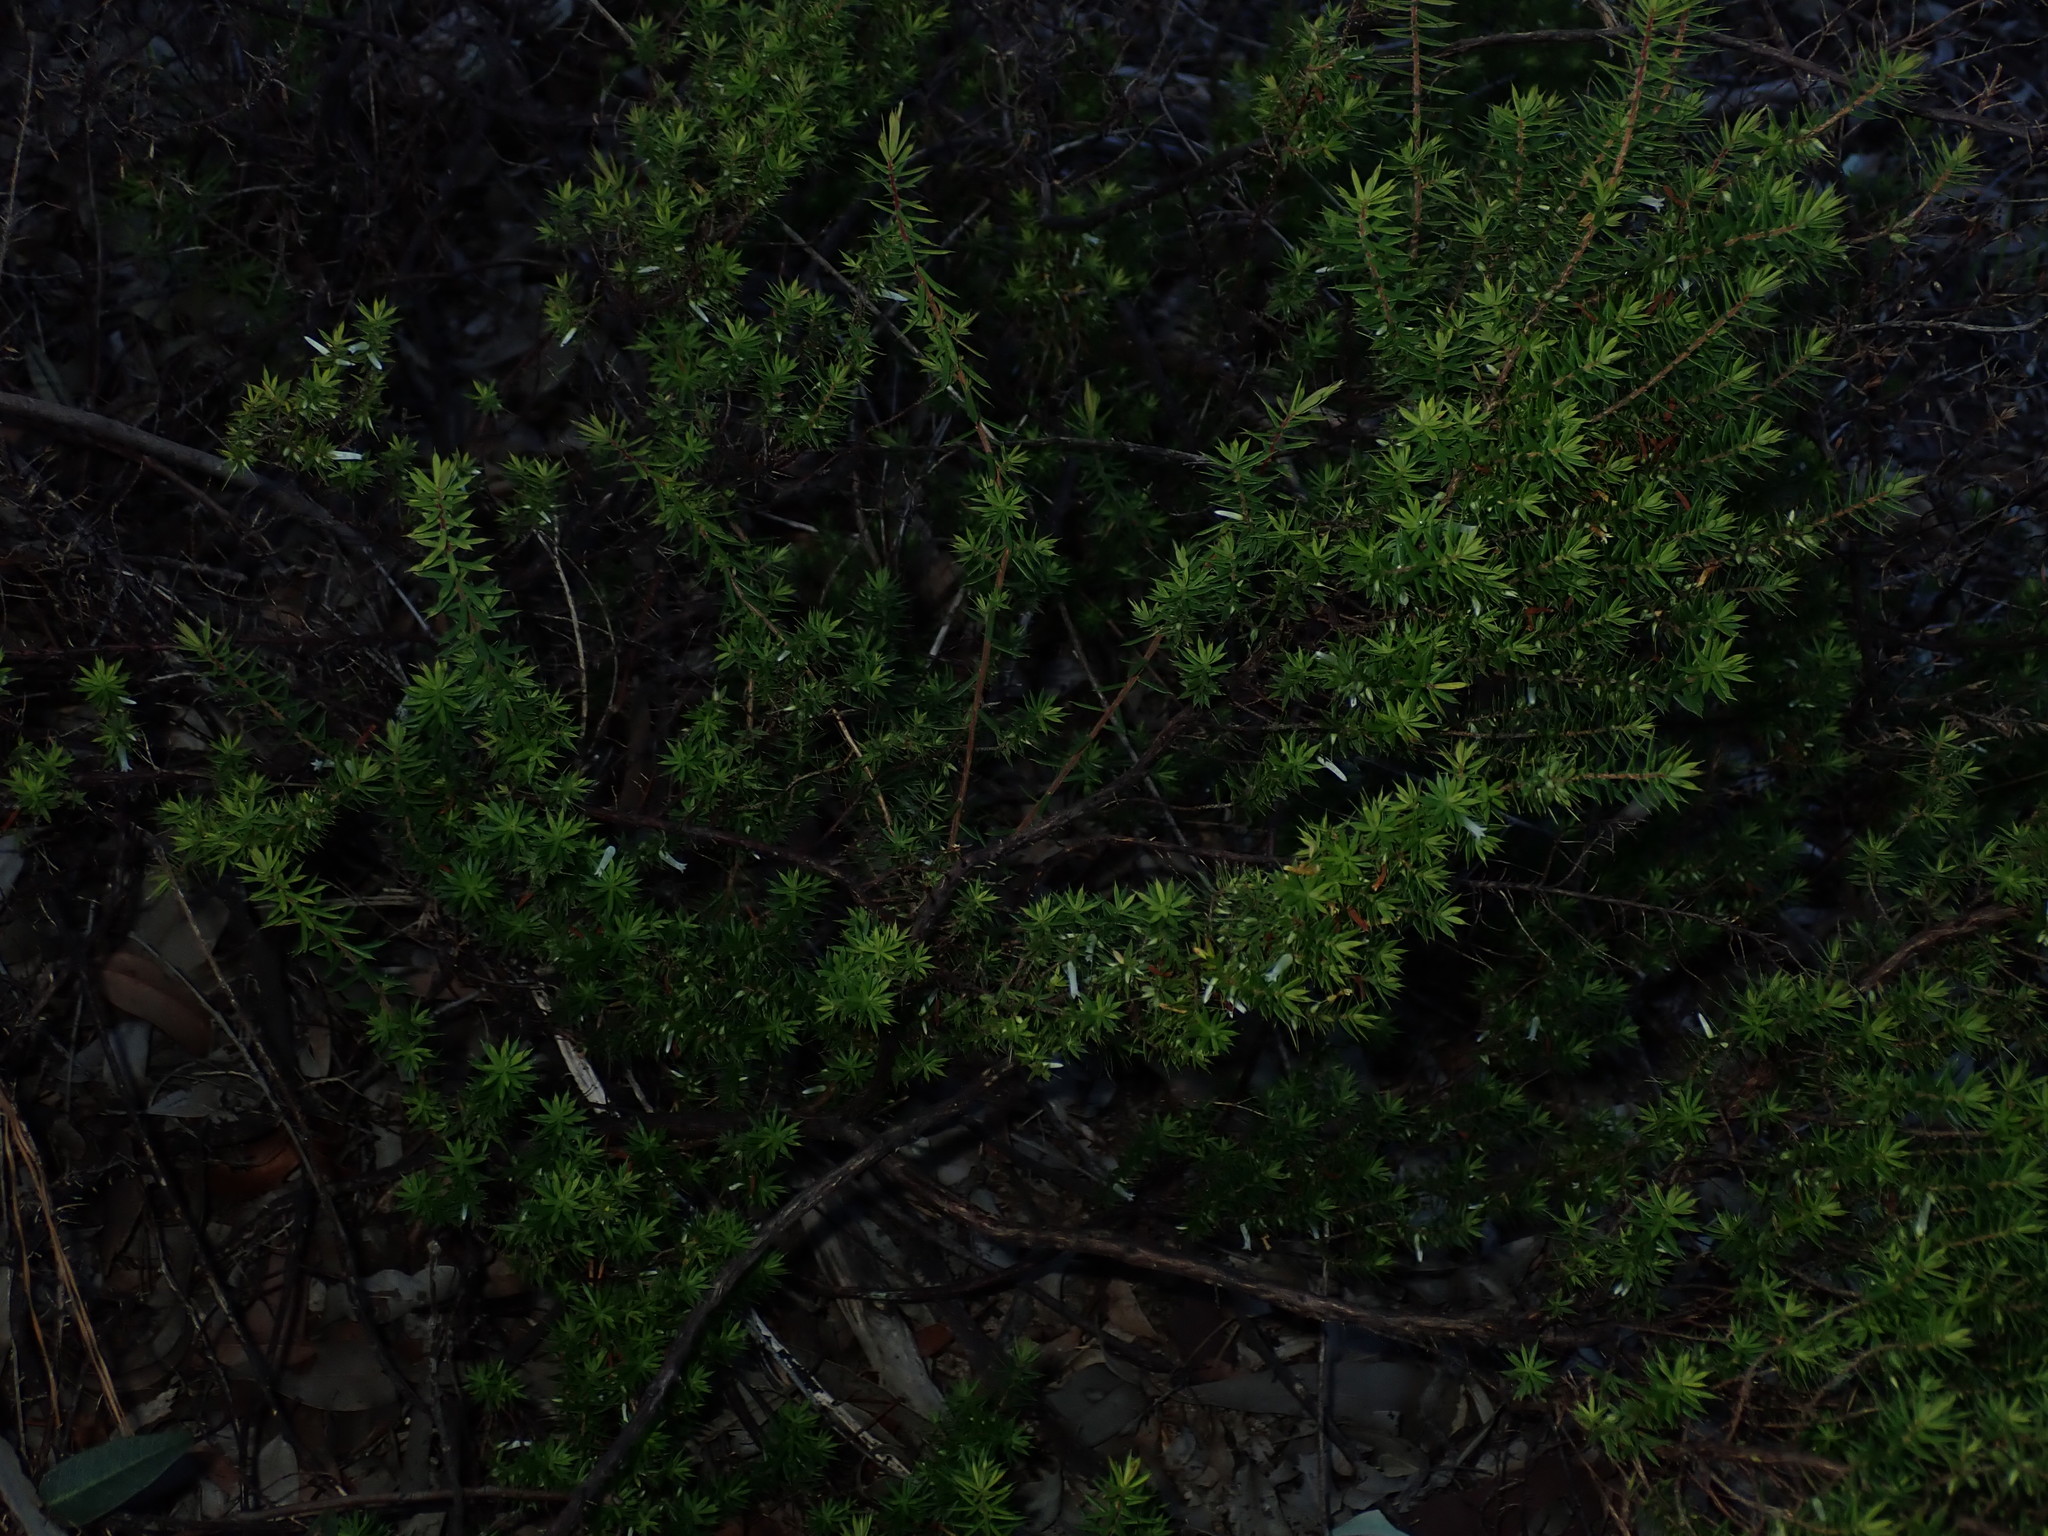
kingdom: Plantae
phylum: Tracheophyta
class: Magnoliopsida
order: Ericales
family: Ericaceae
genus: Styphelia
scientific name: Styphelia sieberi
